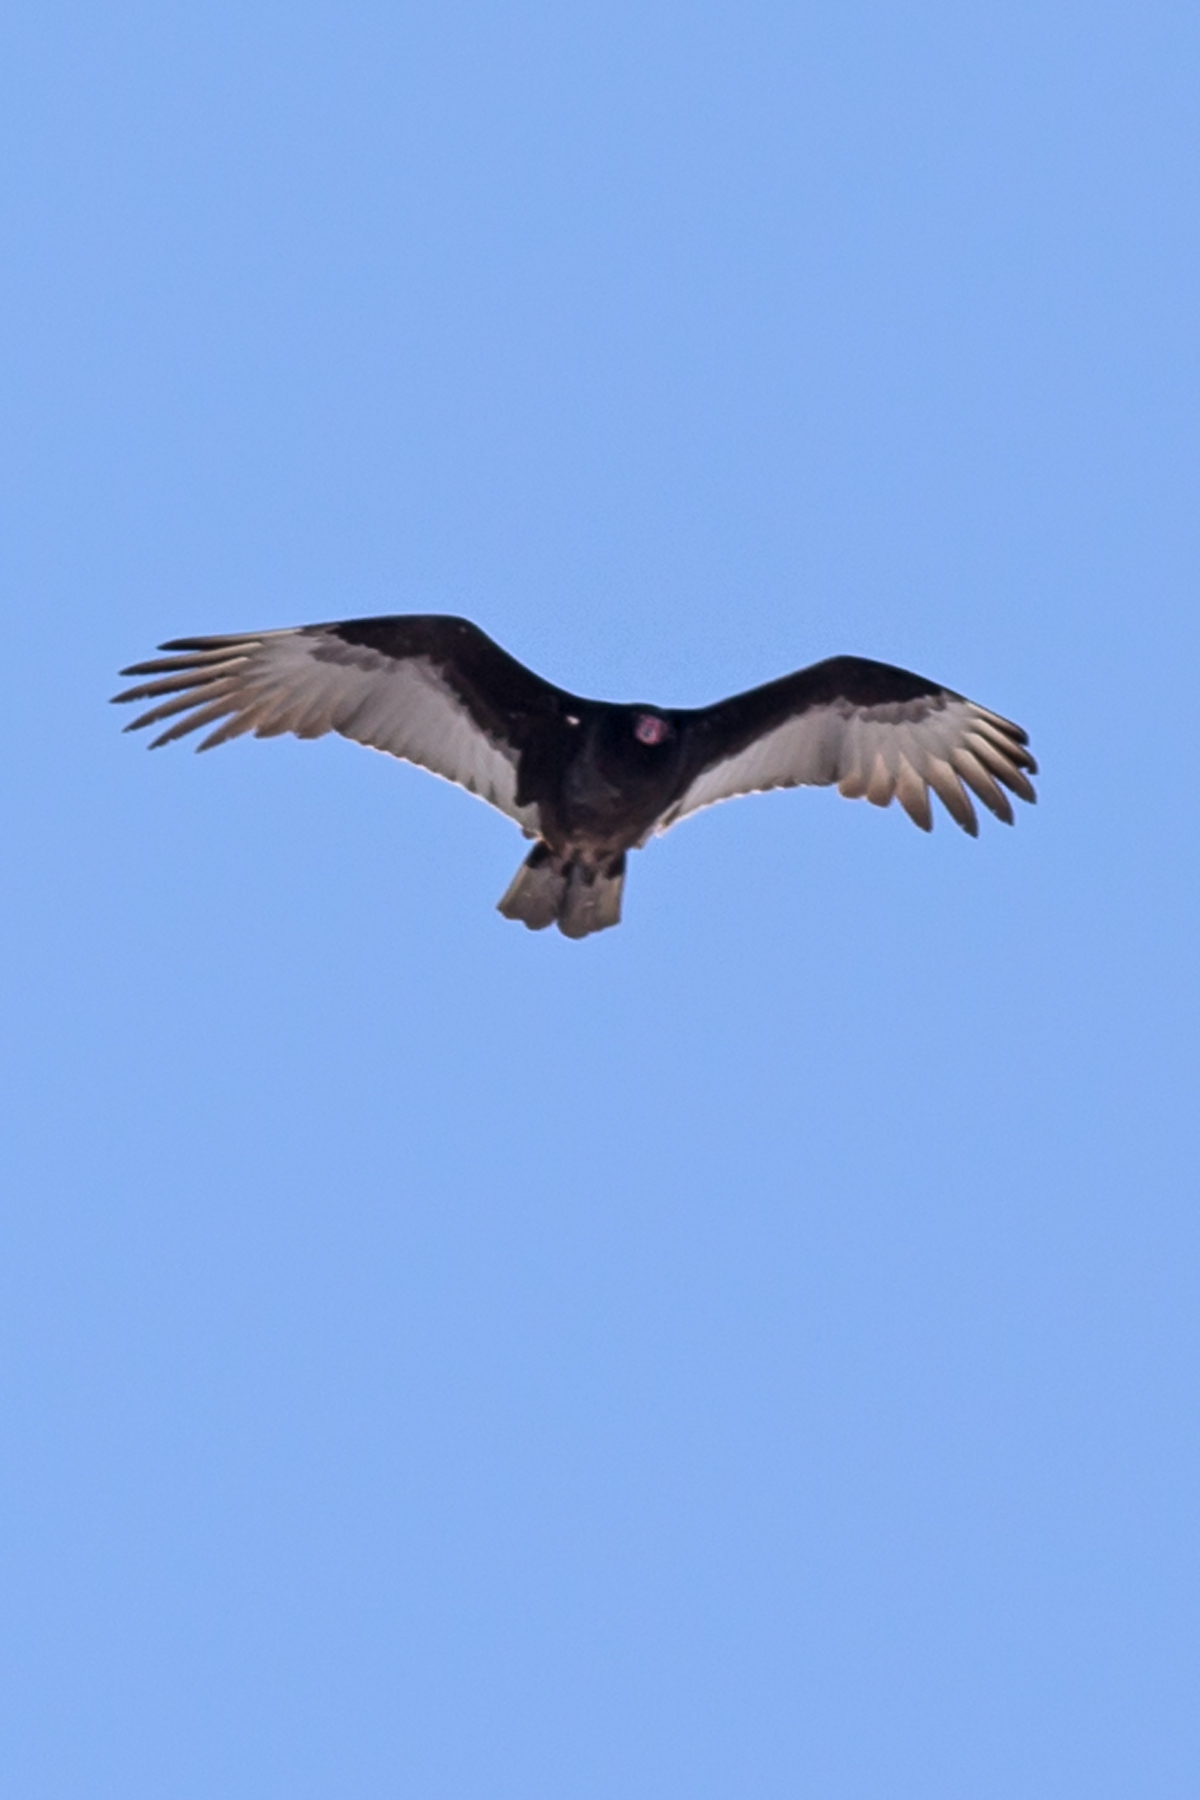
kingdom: Animalia
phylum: Chordata
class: Aves
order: Accipitriformes
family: Cathartidae
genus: Cathartes
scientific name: Cathartes aura
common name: Turkey vulture
